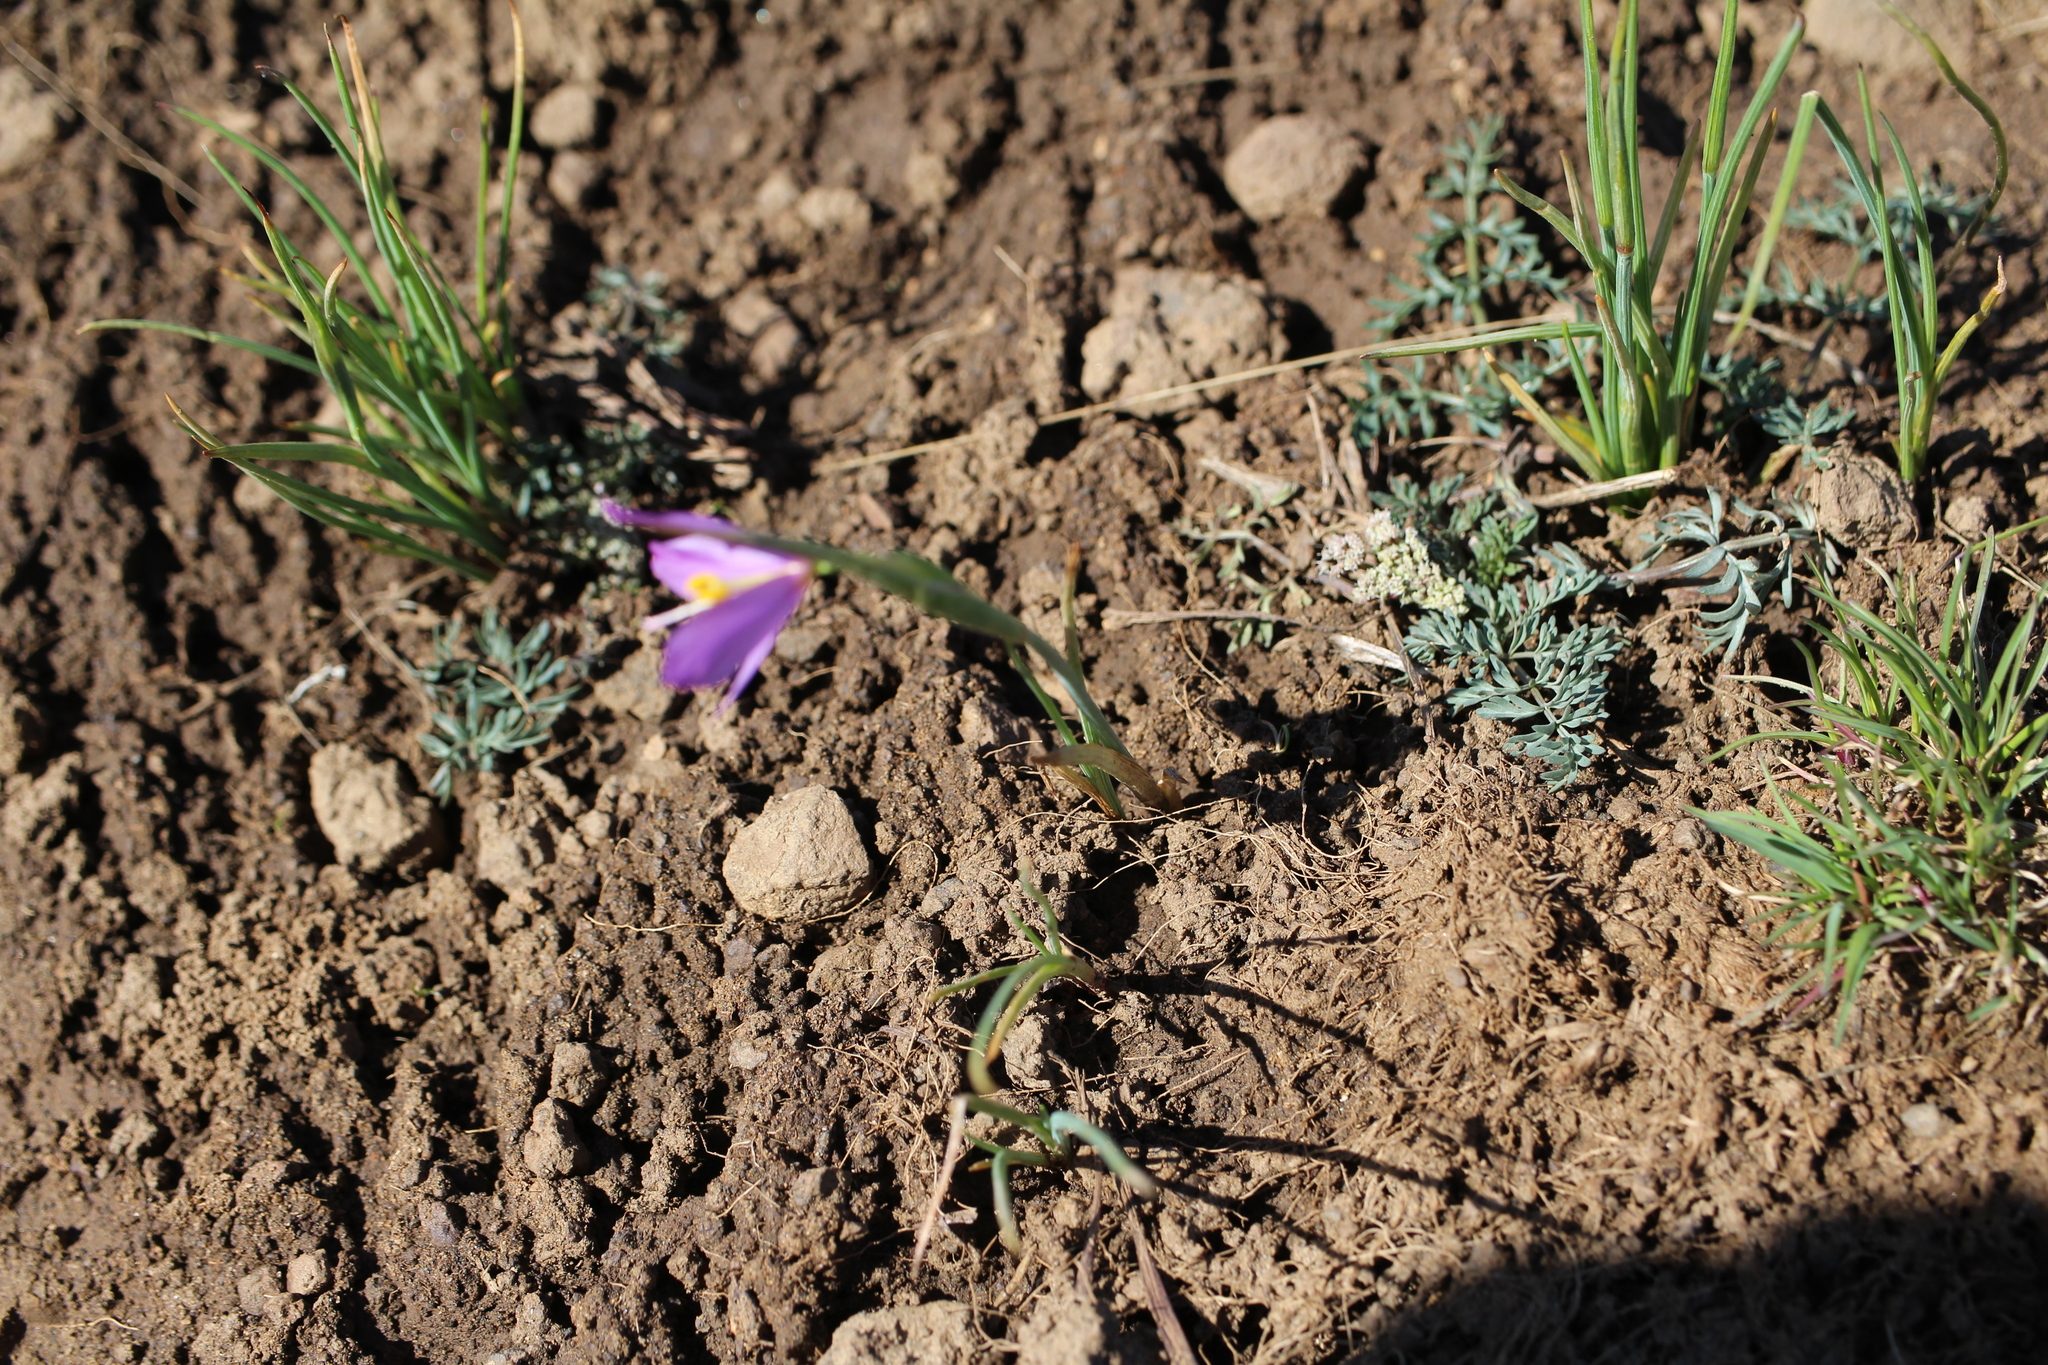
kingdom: Plantae
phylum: Tracheophyta
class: Liliopsida
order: Asparagales
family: Iridaceae
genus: Olsynium
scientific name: Olsynium douglasii
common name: Douglas' grasswidow
